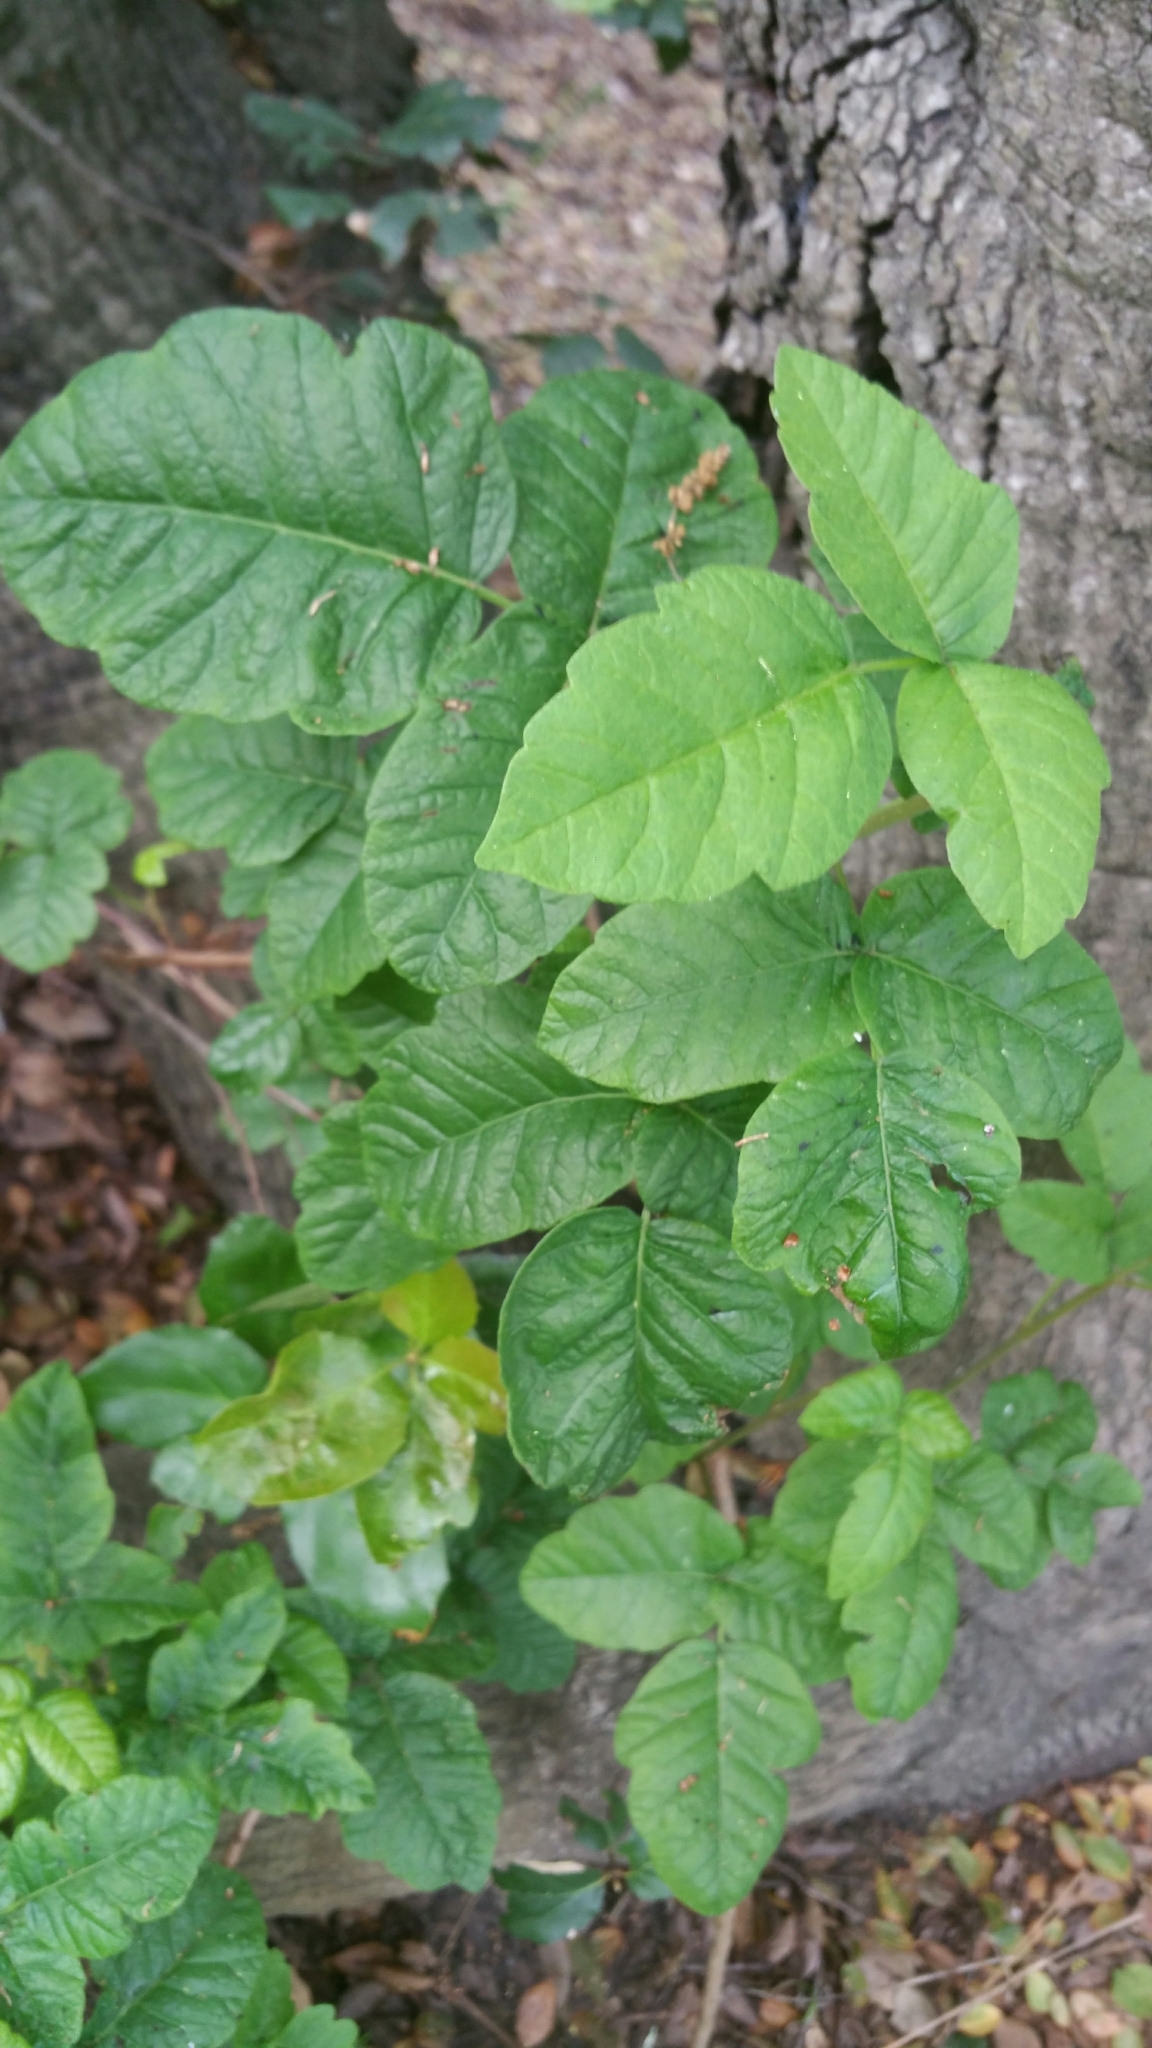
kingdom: Plantae
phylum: Tracheophyta
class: Magnoliopsida
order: Sapindales
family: Anacardiaceae
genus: Toxicodendron
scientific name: Toxicodendron diversilobum
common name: Pacific poison-oak
